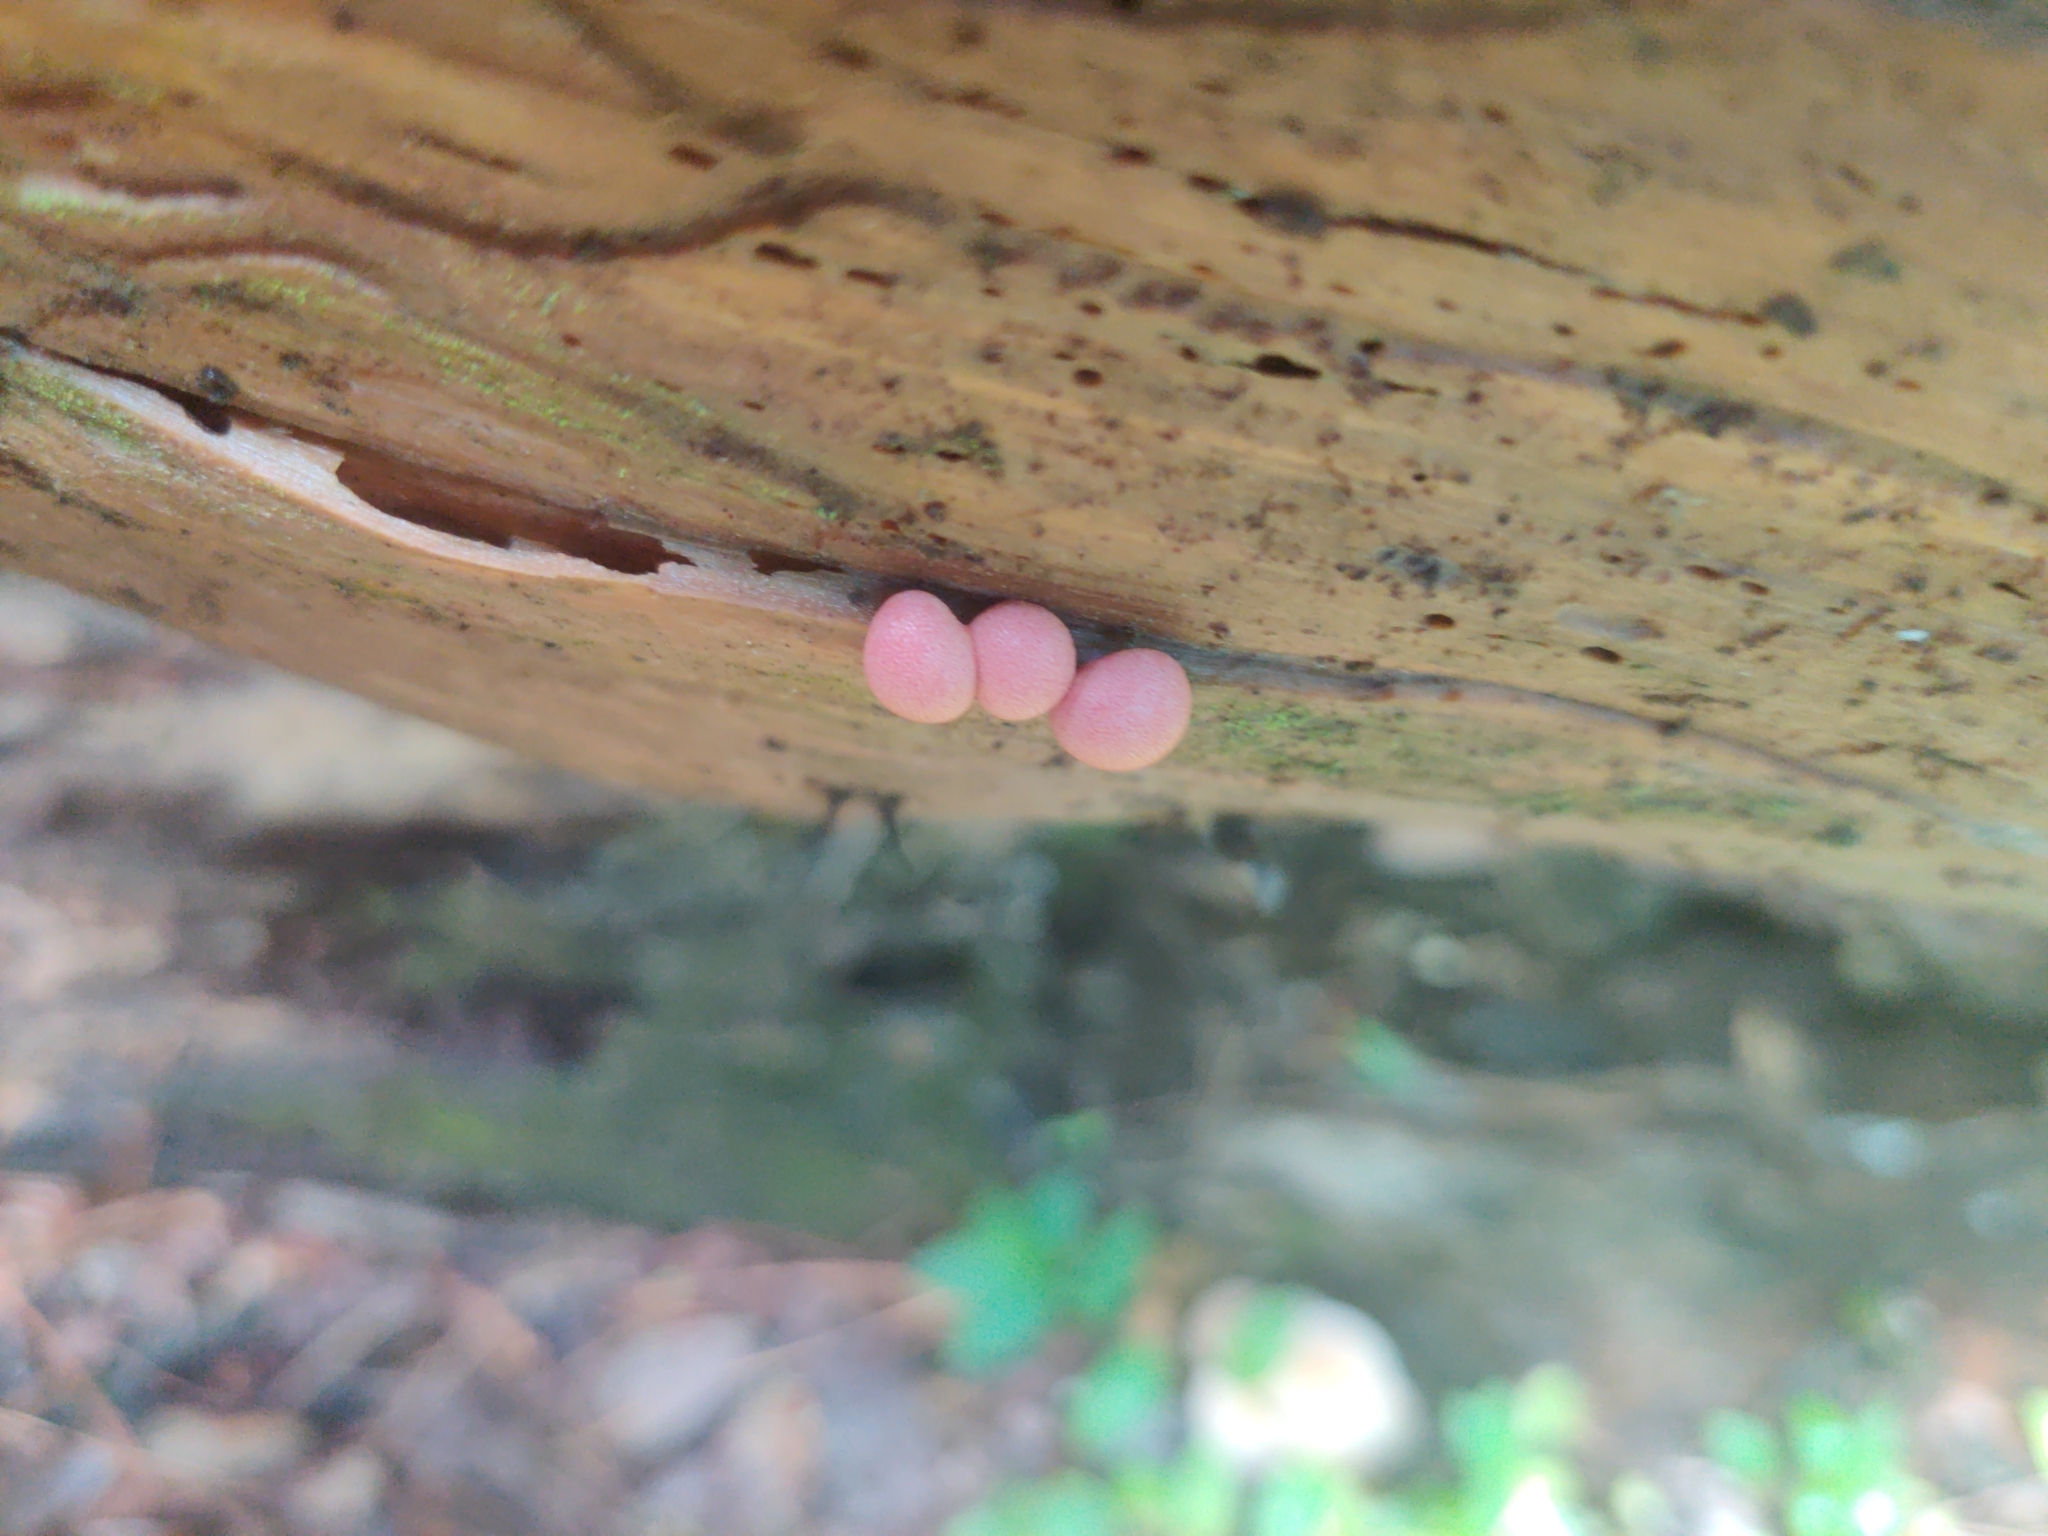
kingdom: Protozoa
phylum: Mycetozoa
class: Myxomycetes
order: Cribrariales
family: Tubiferaceae
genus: Lycogala
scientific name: Lycogala epidendrum
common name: Wolf's milk
